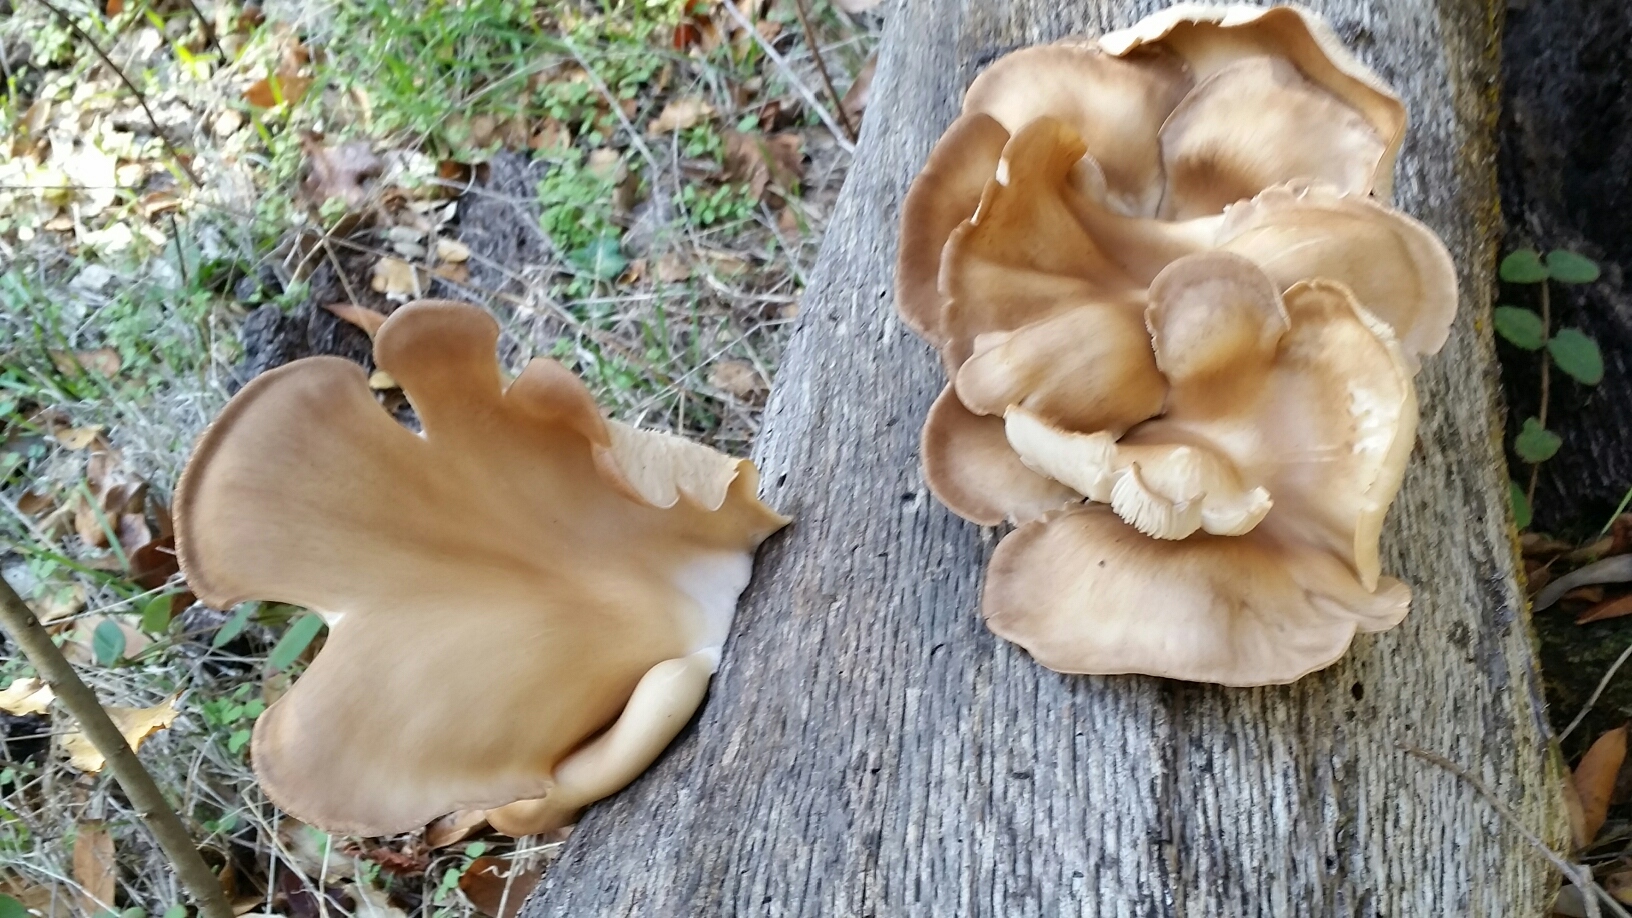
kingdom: Fungi
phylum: Basidiomycota
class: Agaricomycetes
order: Agaricales
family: Pleurotaceae
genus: Pleurotus
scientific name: Pleurotus ostreatus
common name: Oyster mushroom
